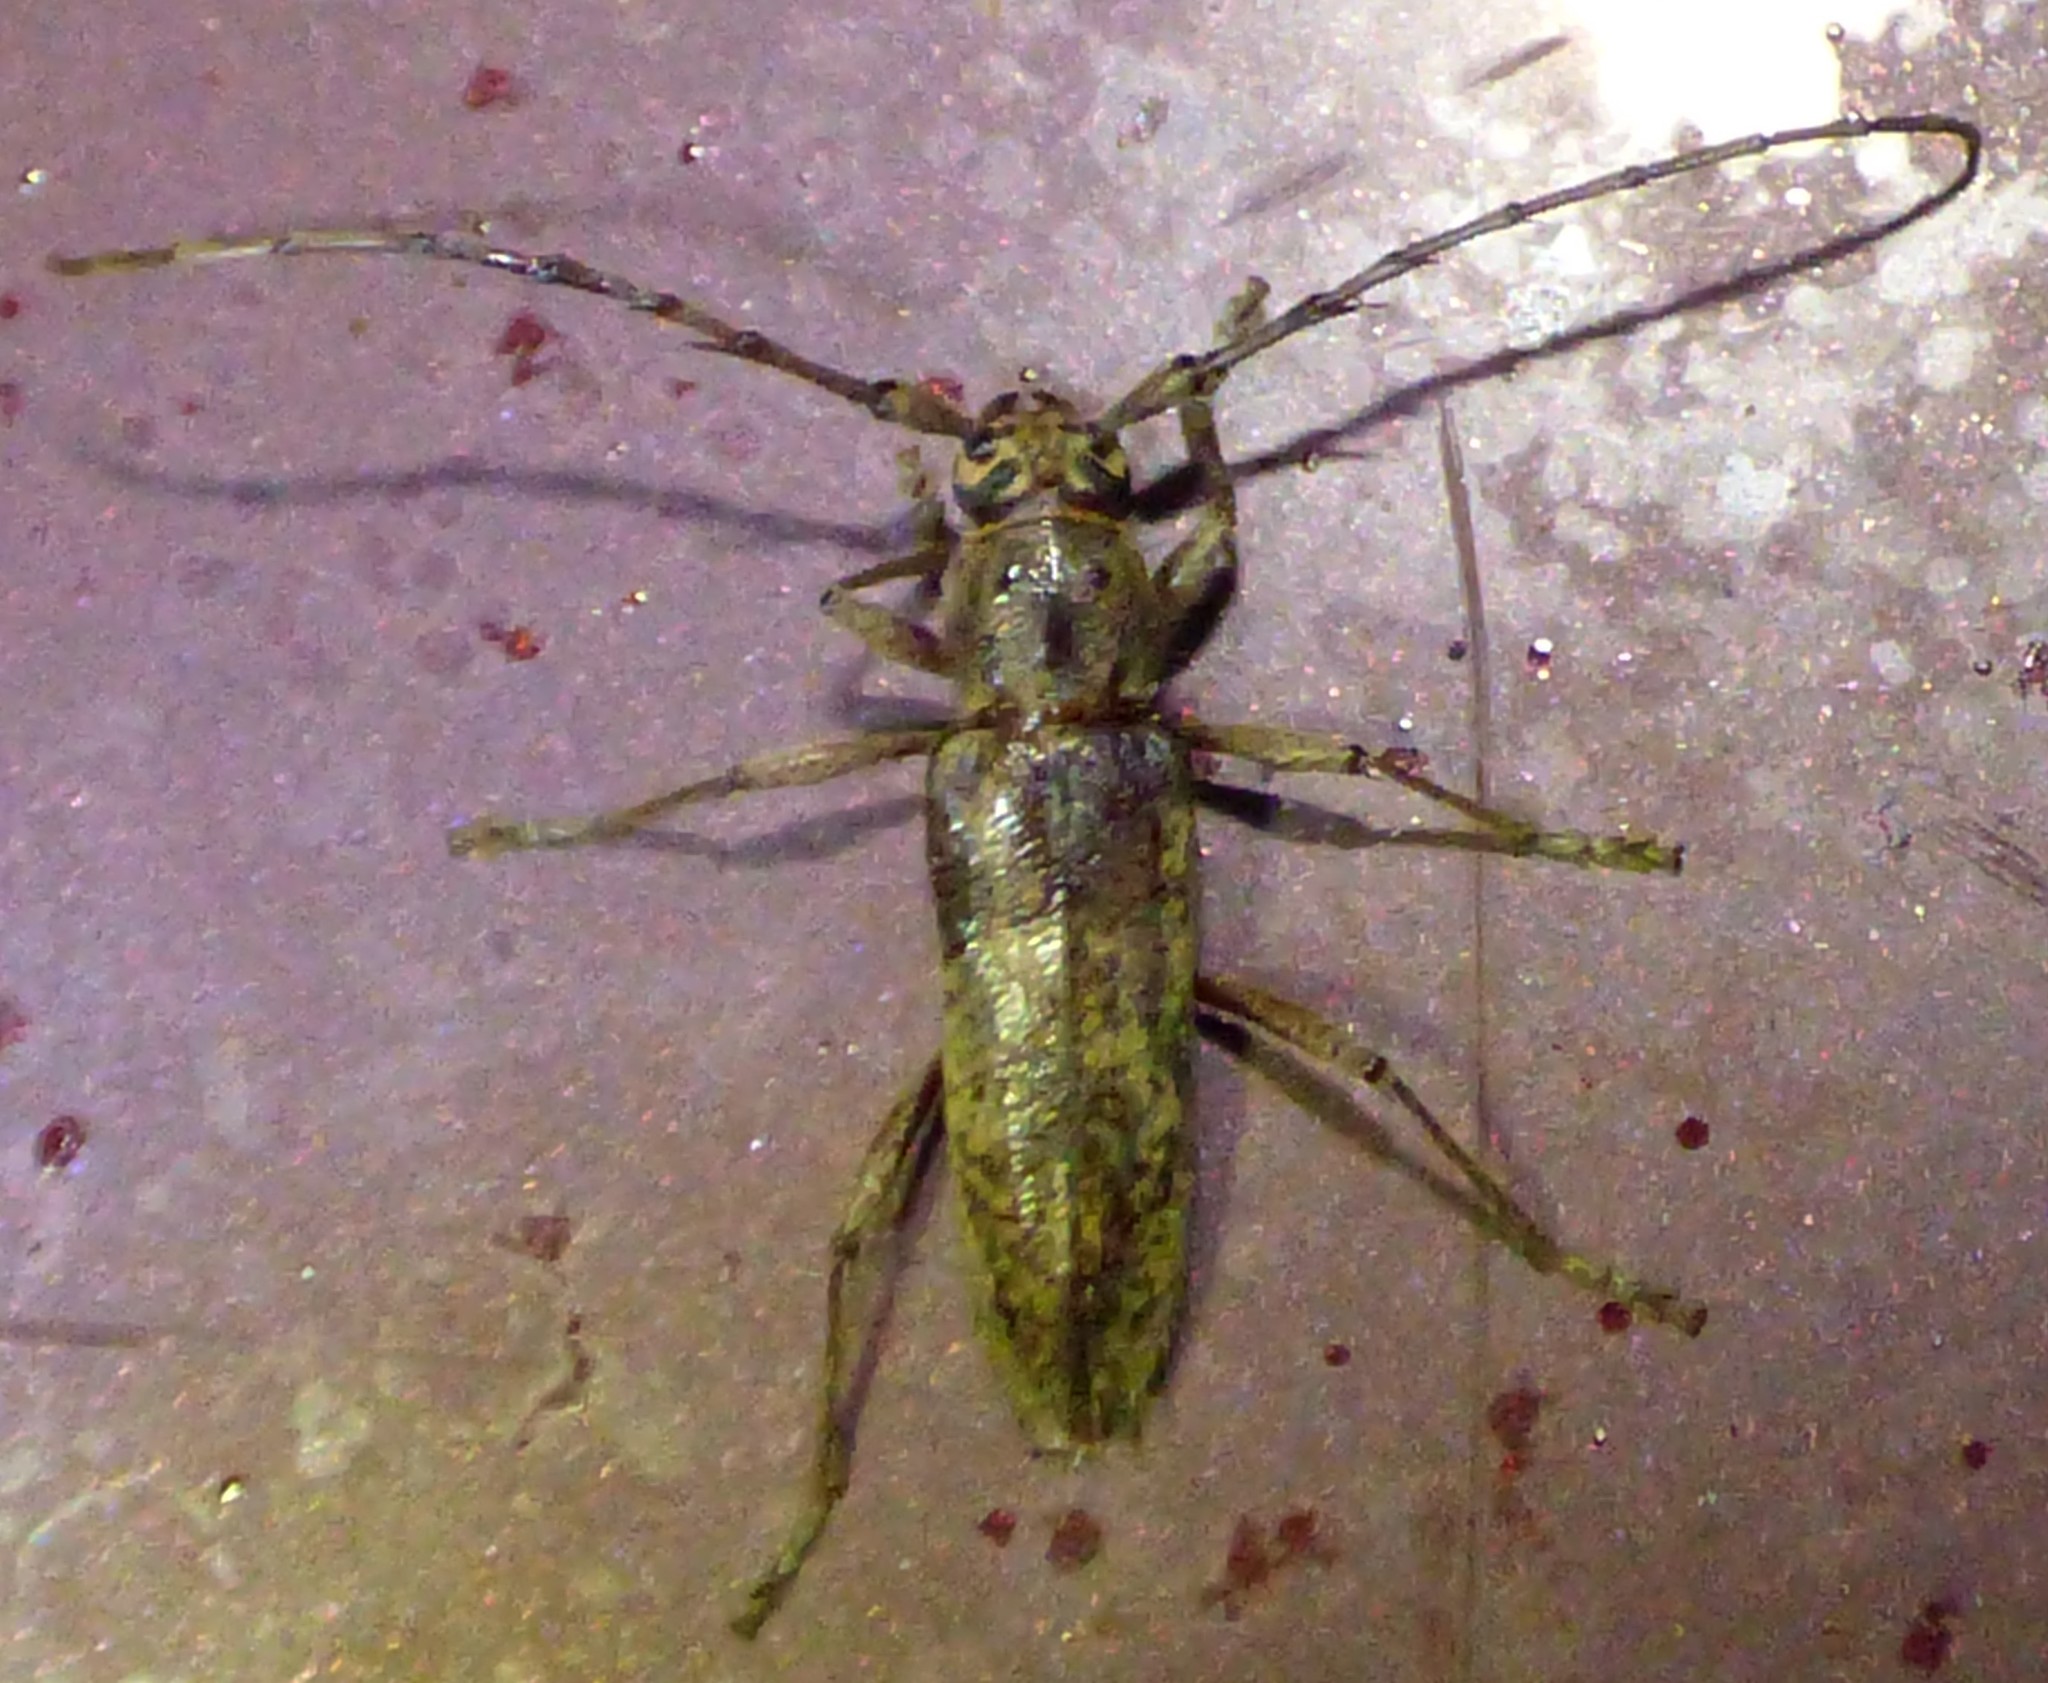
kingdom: Animalia
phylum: Arthropoda
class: Insecta
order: Coleoptera
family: Cerambycidae
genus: Elaphidion
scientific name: Elaphidion mucronatum
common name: Spined oak borer
